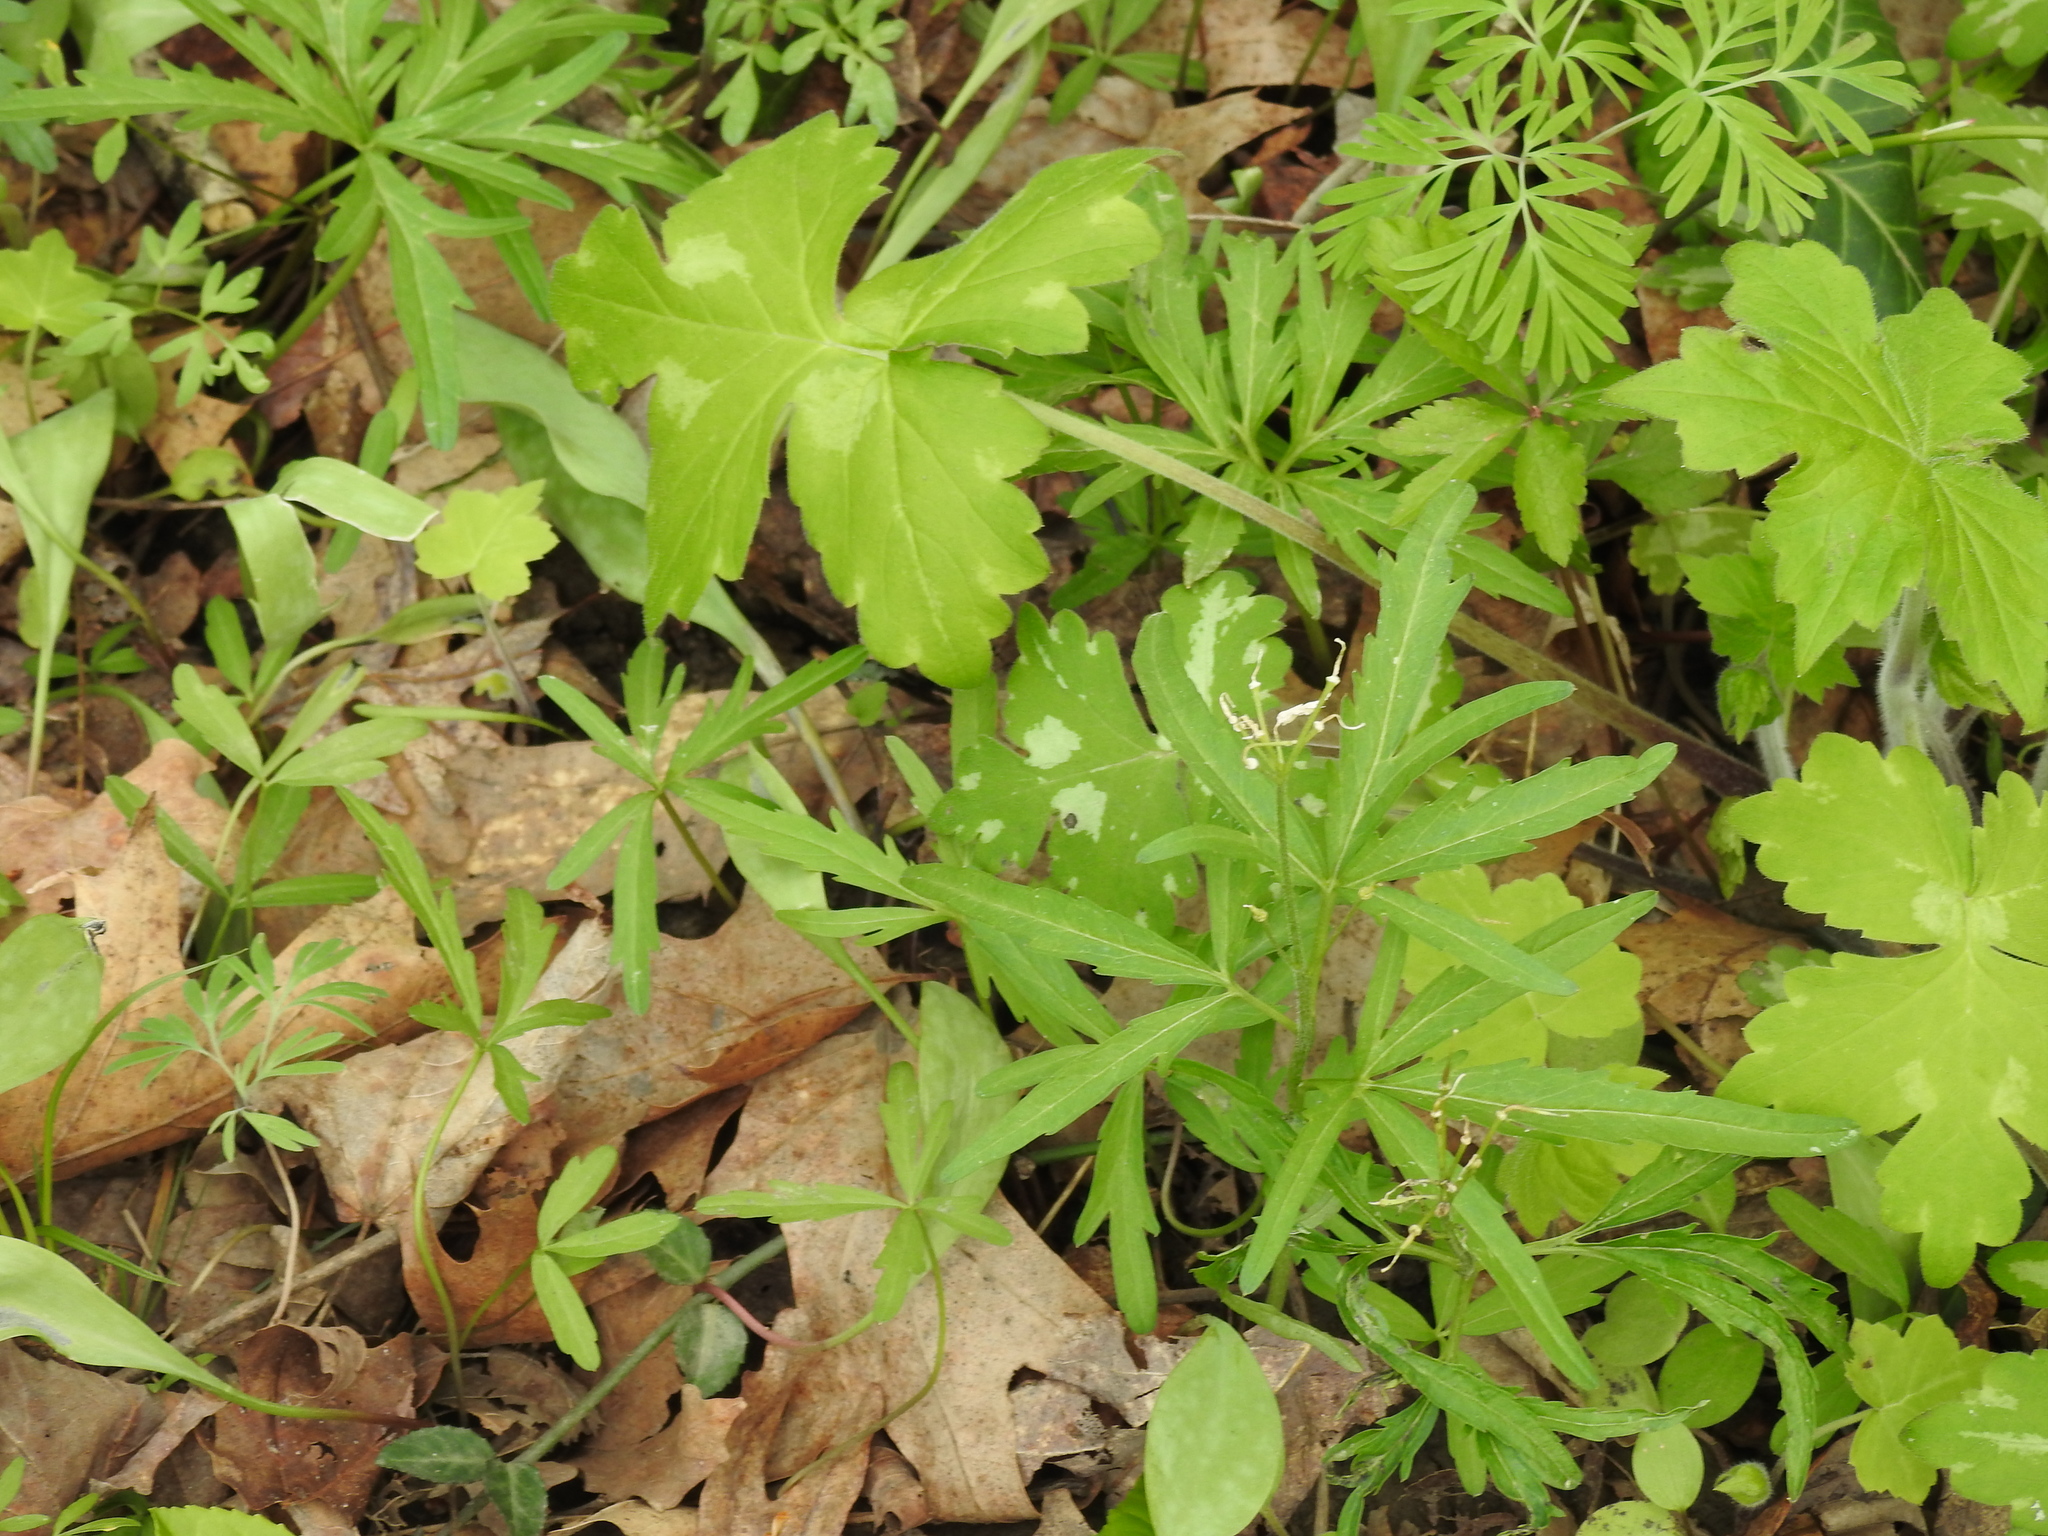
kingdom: Plantae
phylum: Tracheophyta
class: Magnoliopsida
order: Boraginales
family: Hydrophyllaceae
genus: Hydrophyllum
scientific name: Hydrophyllum appendiculatum
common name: Appendaged waterleaf
